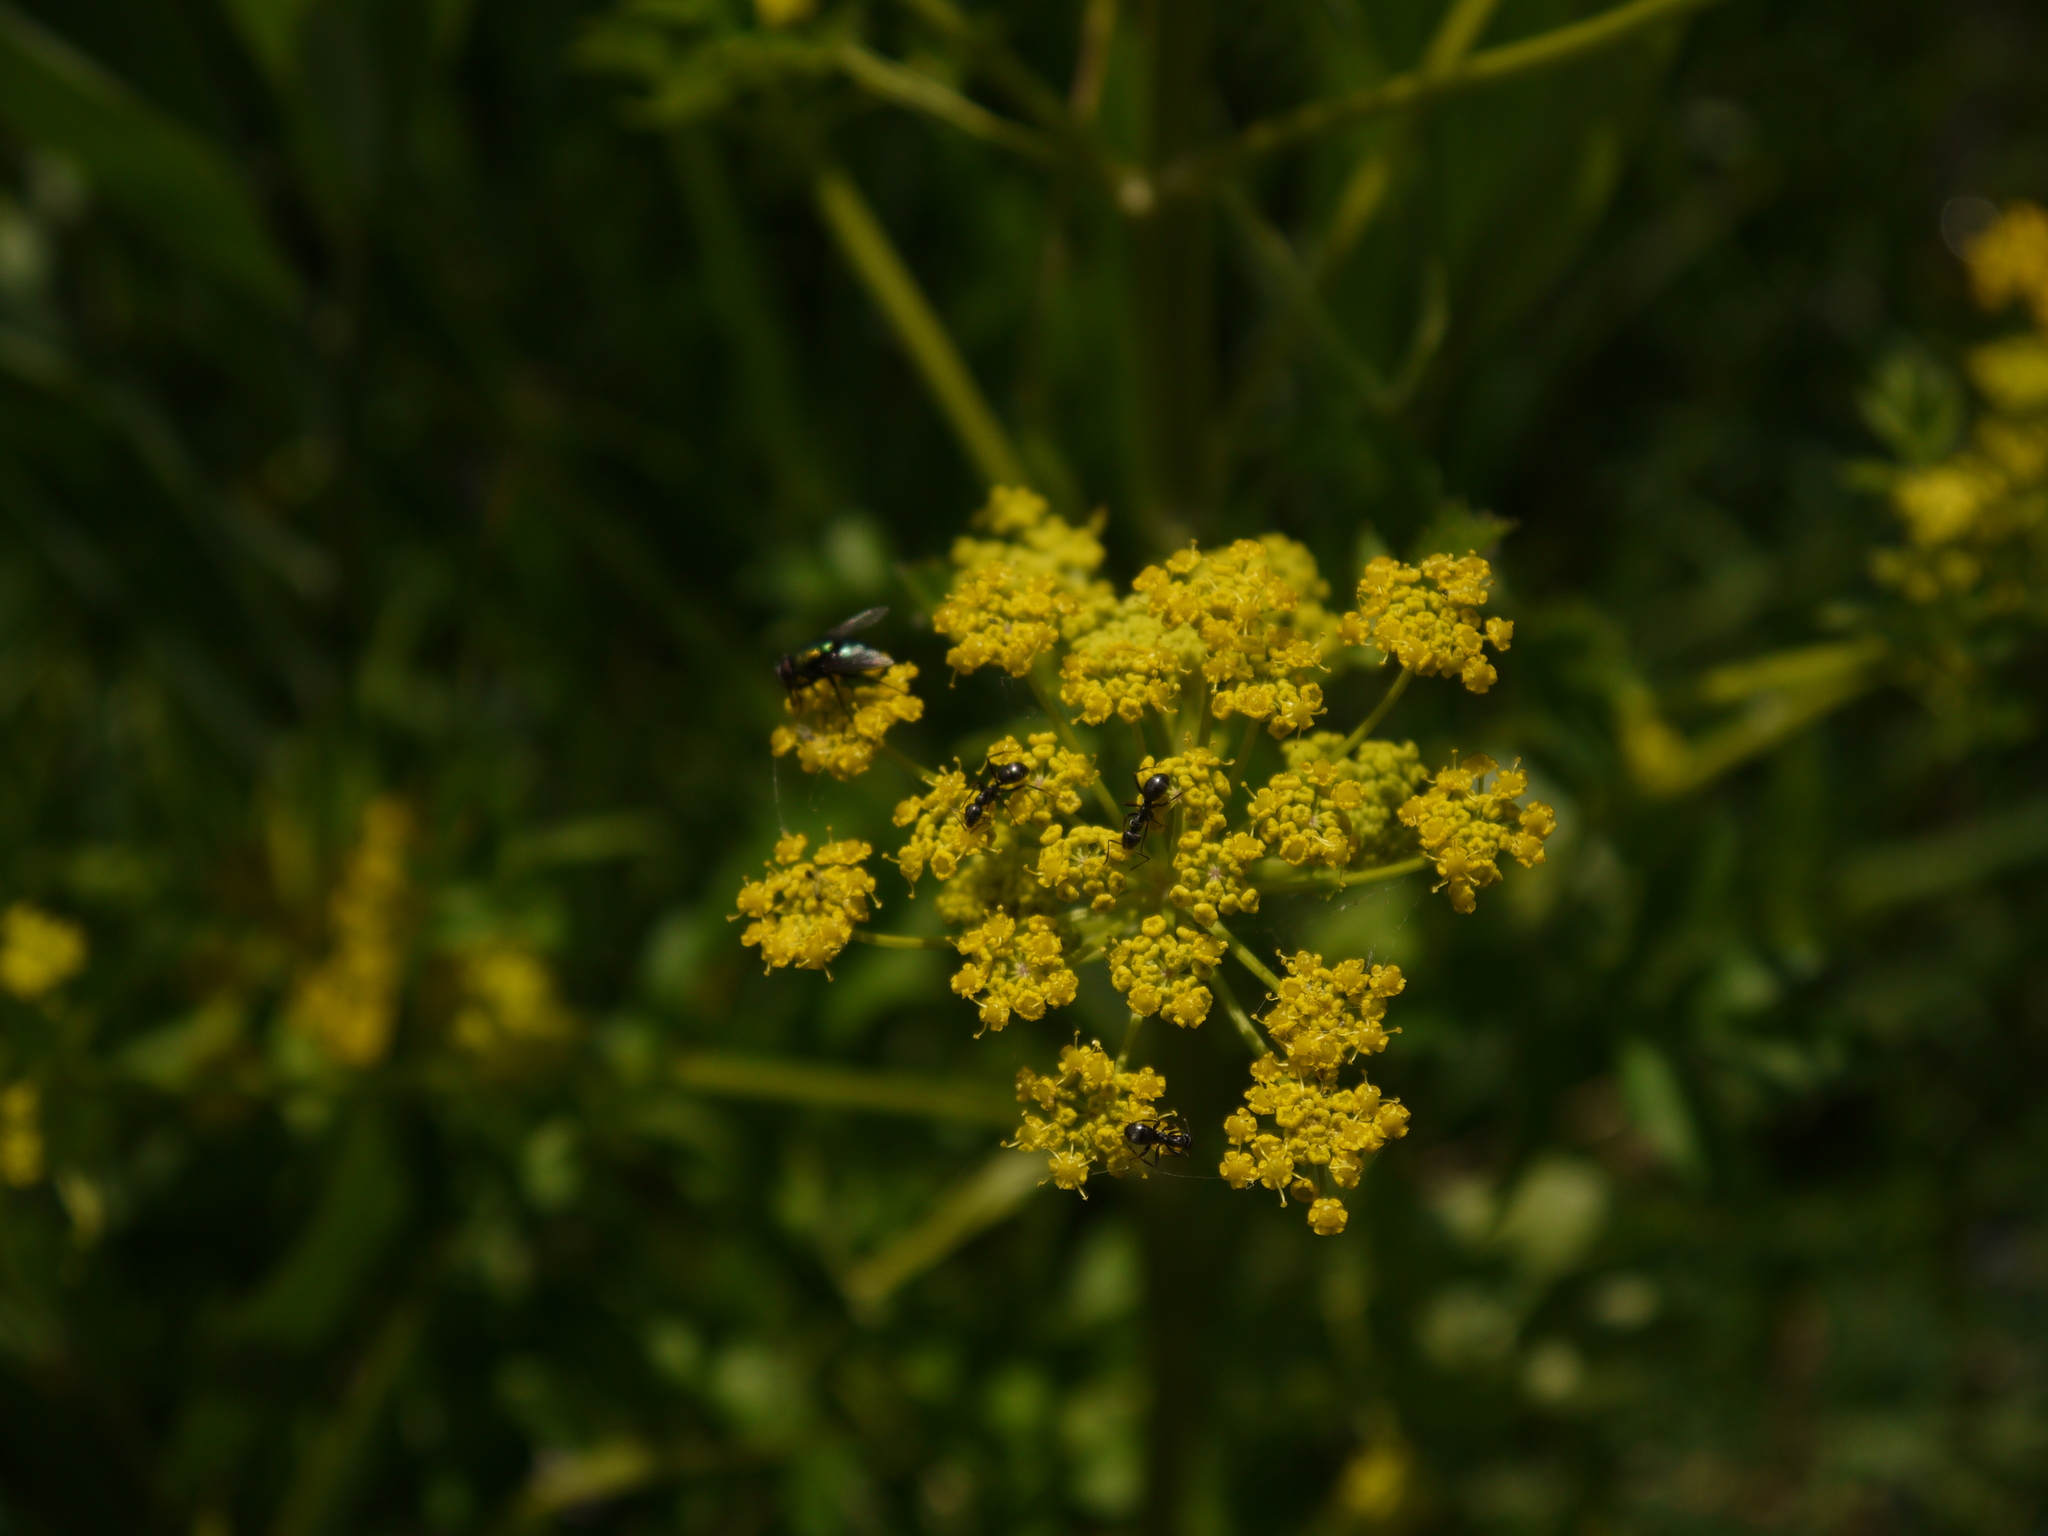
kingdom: Plantae
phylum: Tracheophyta
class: Magnoliopsida
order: Apiales
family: Apiaceae
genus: Pastinaca
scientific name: Pastinaca sativa
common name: Wild parsnip
